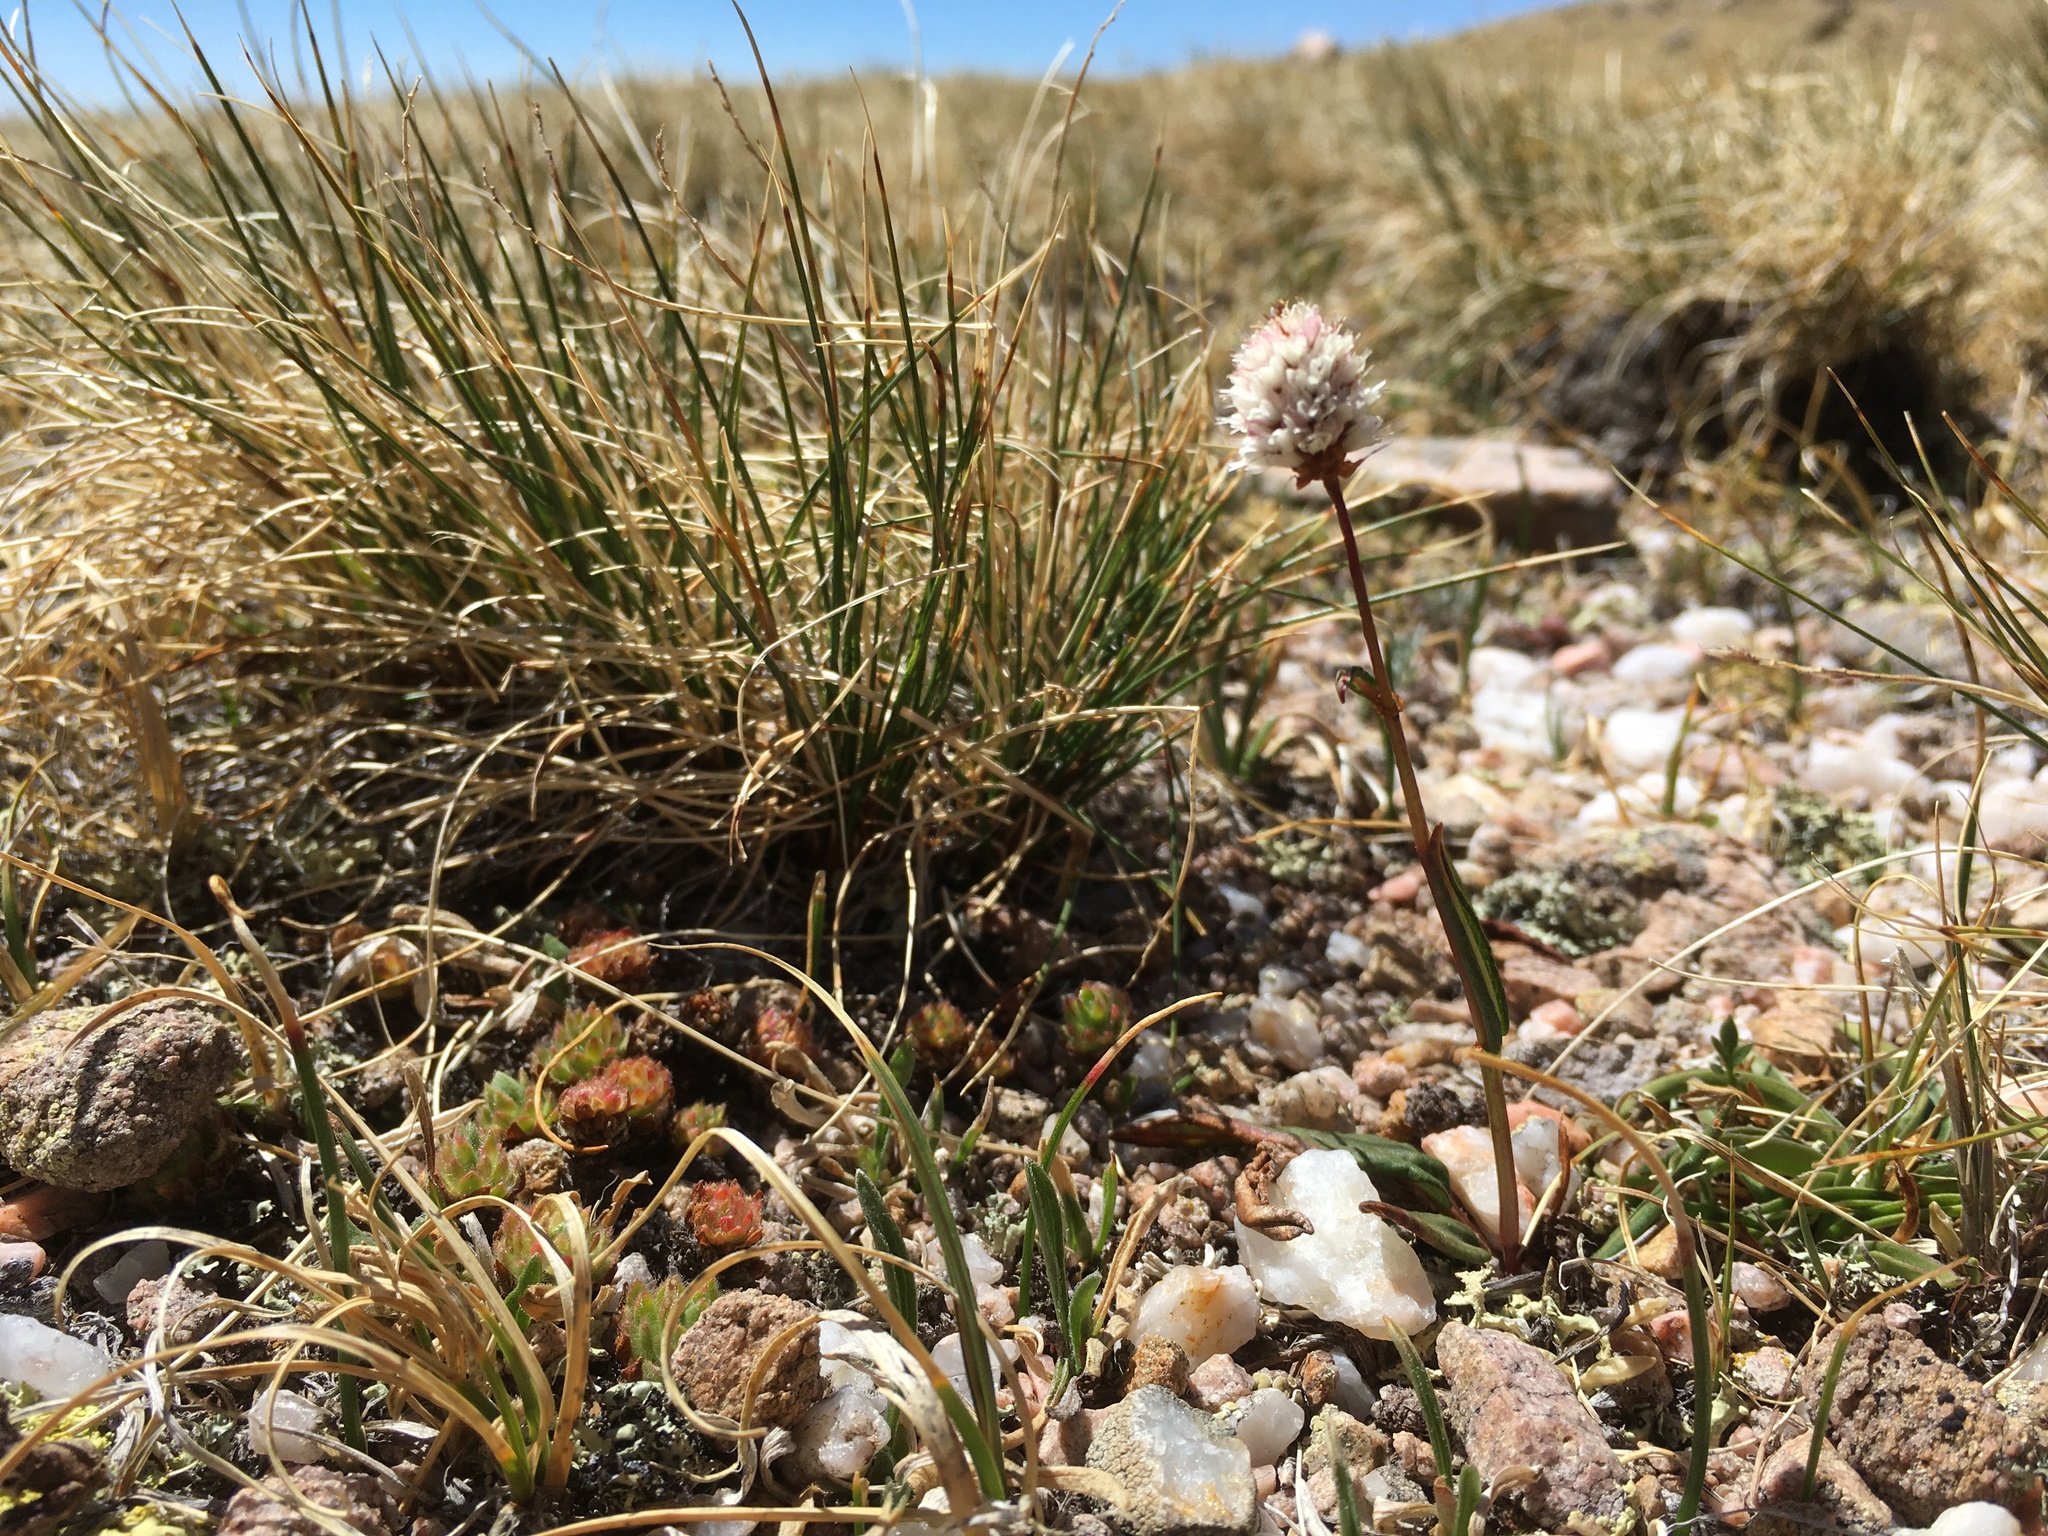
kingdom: Plantae
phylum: Tracheophyta
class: Magnoliopsida
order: Caryophyllales
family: Polygonaceae
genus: Bistorta
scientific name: Bistorta bistortoides
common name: American bistort
